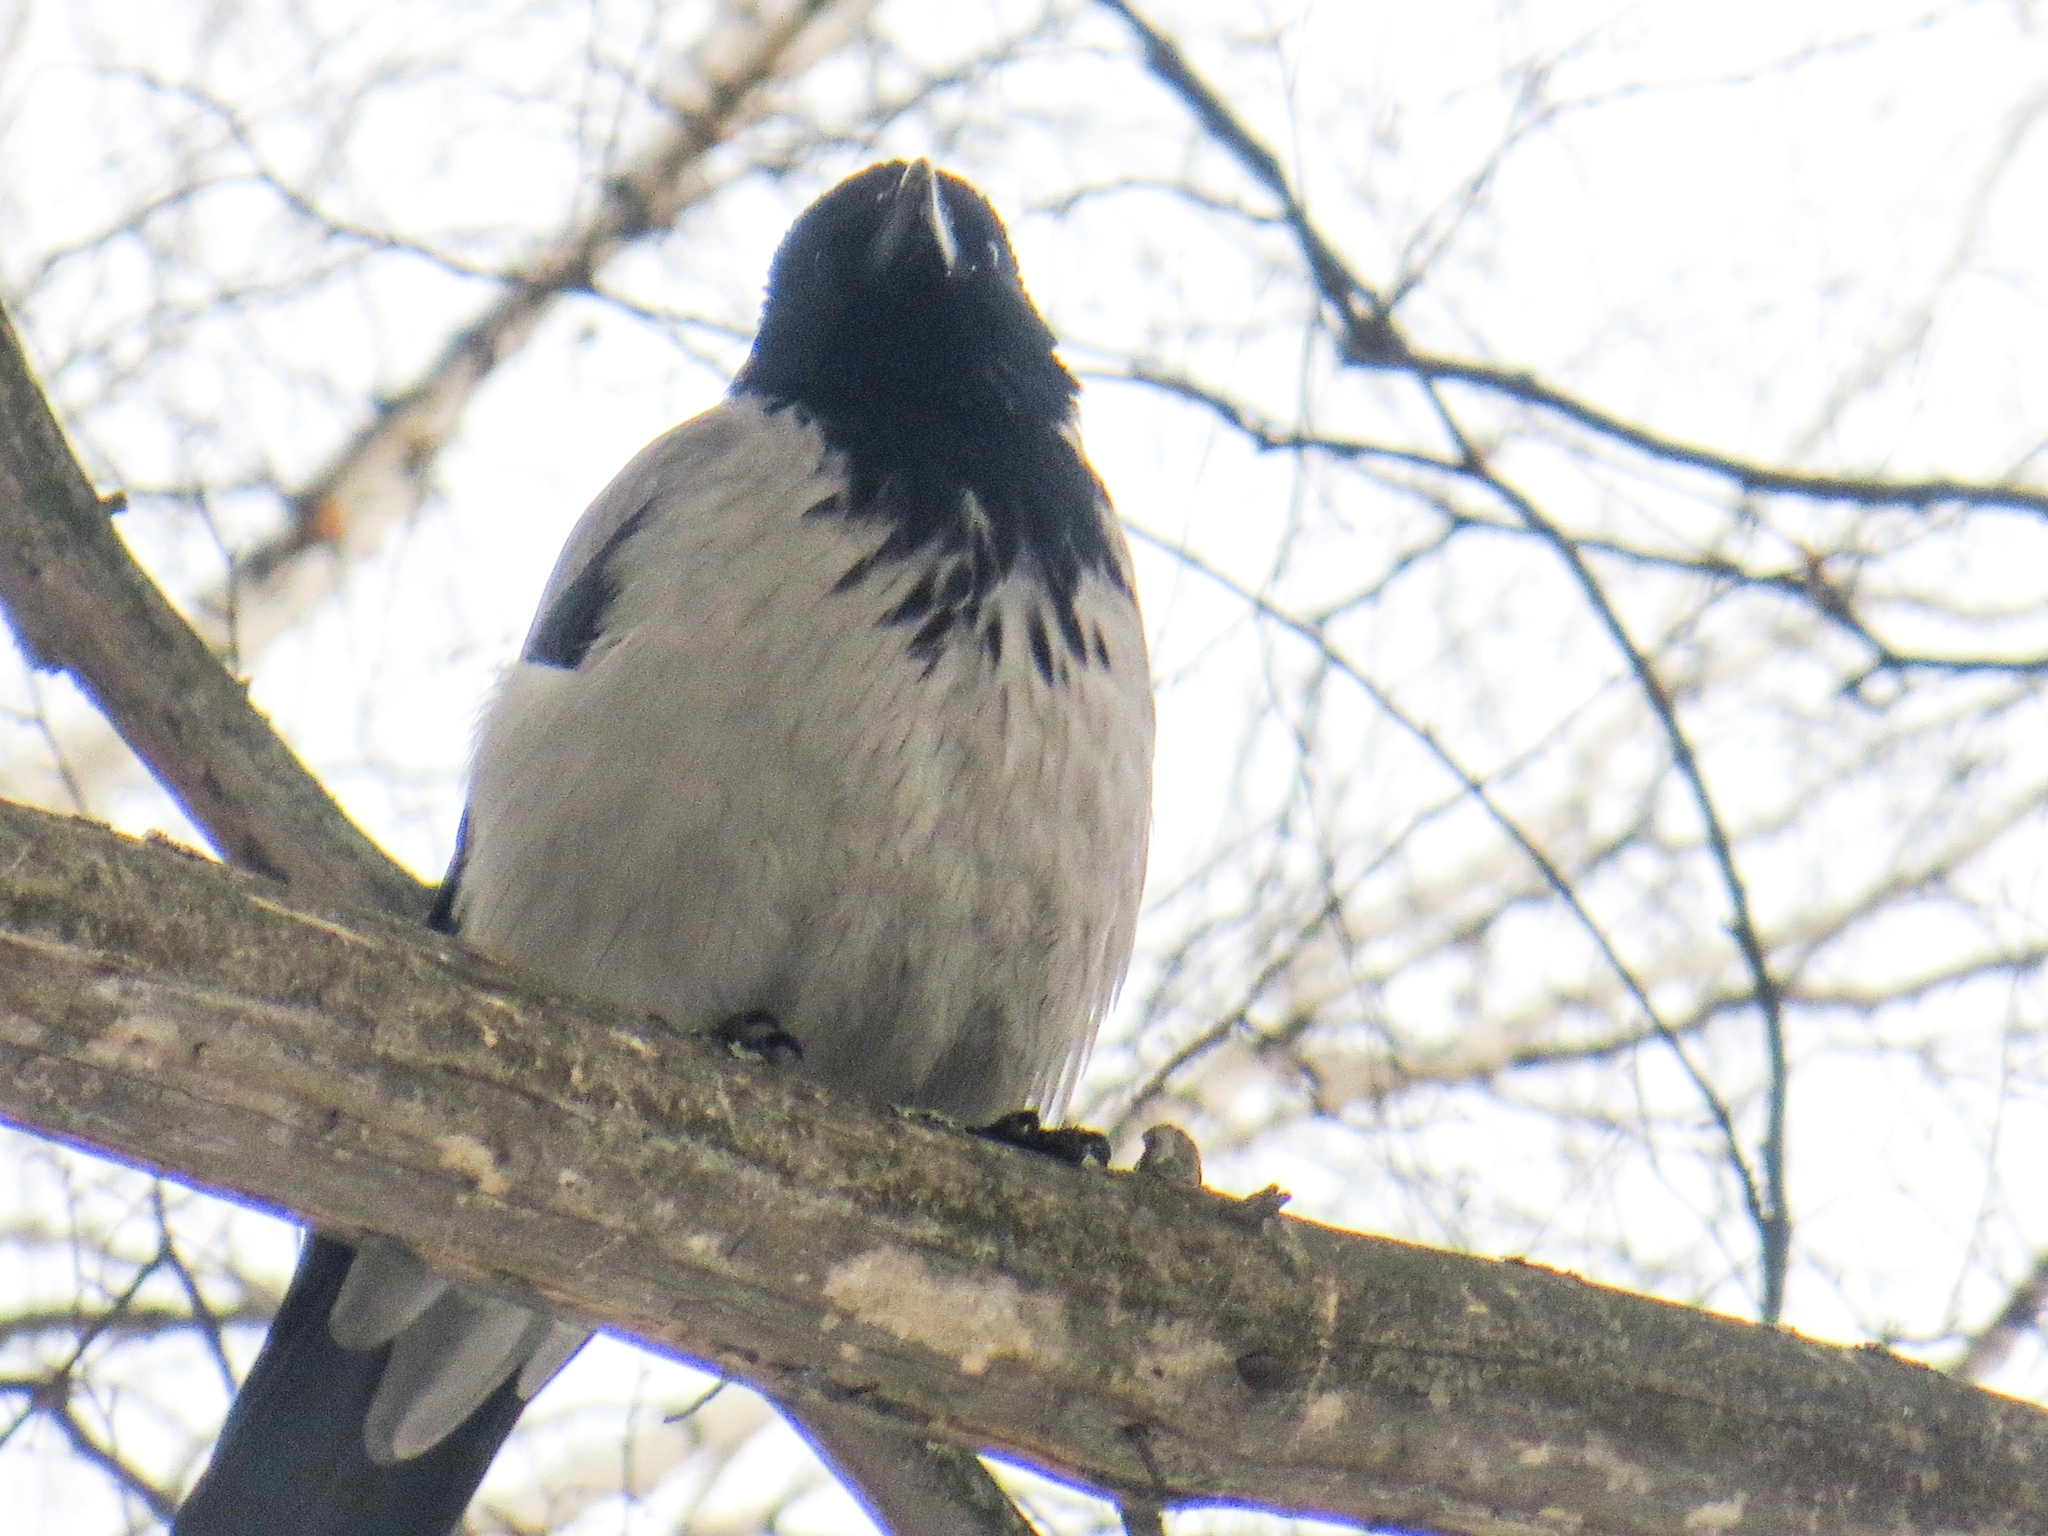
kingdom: Animalia
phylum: Chordata
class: Aves
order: Passeriformes
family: Corvidae
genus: Corvus
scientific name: Corvus cornix
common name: Hooded crow
